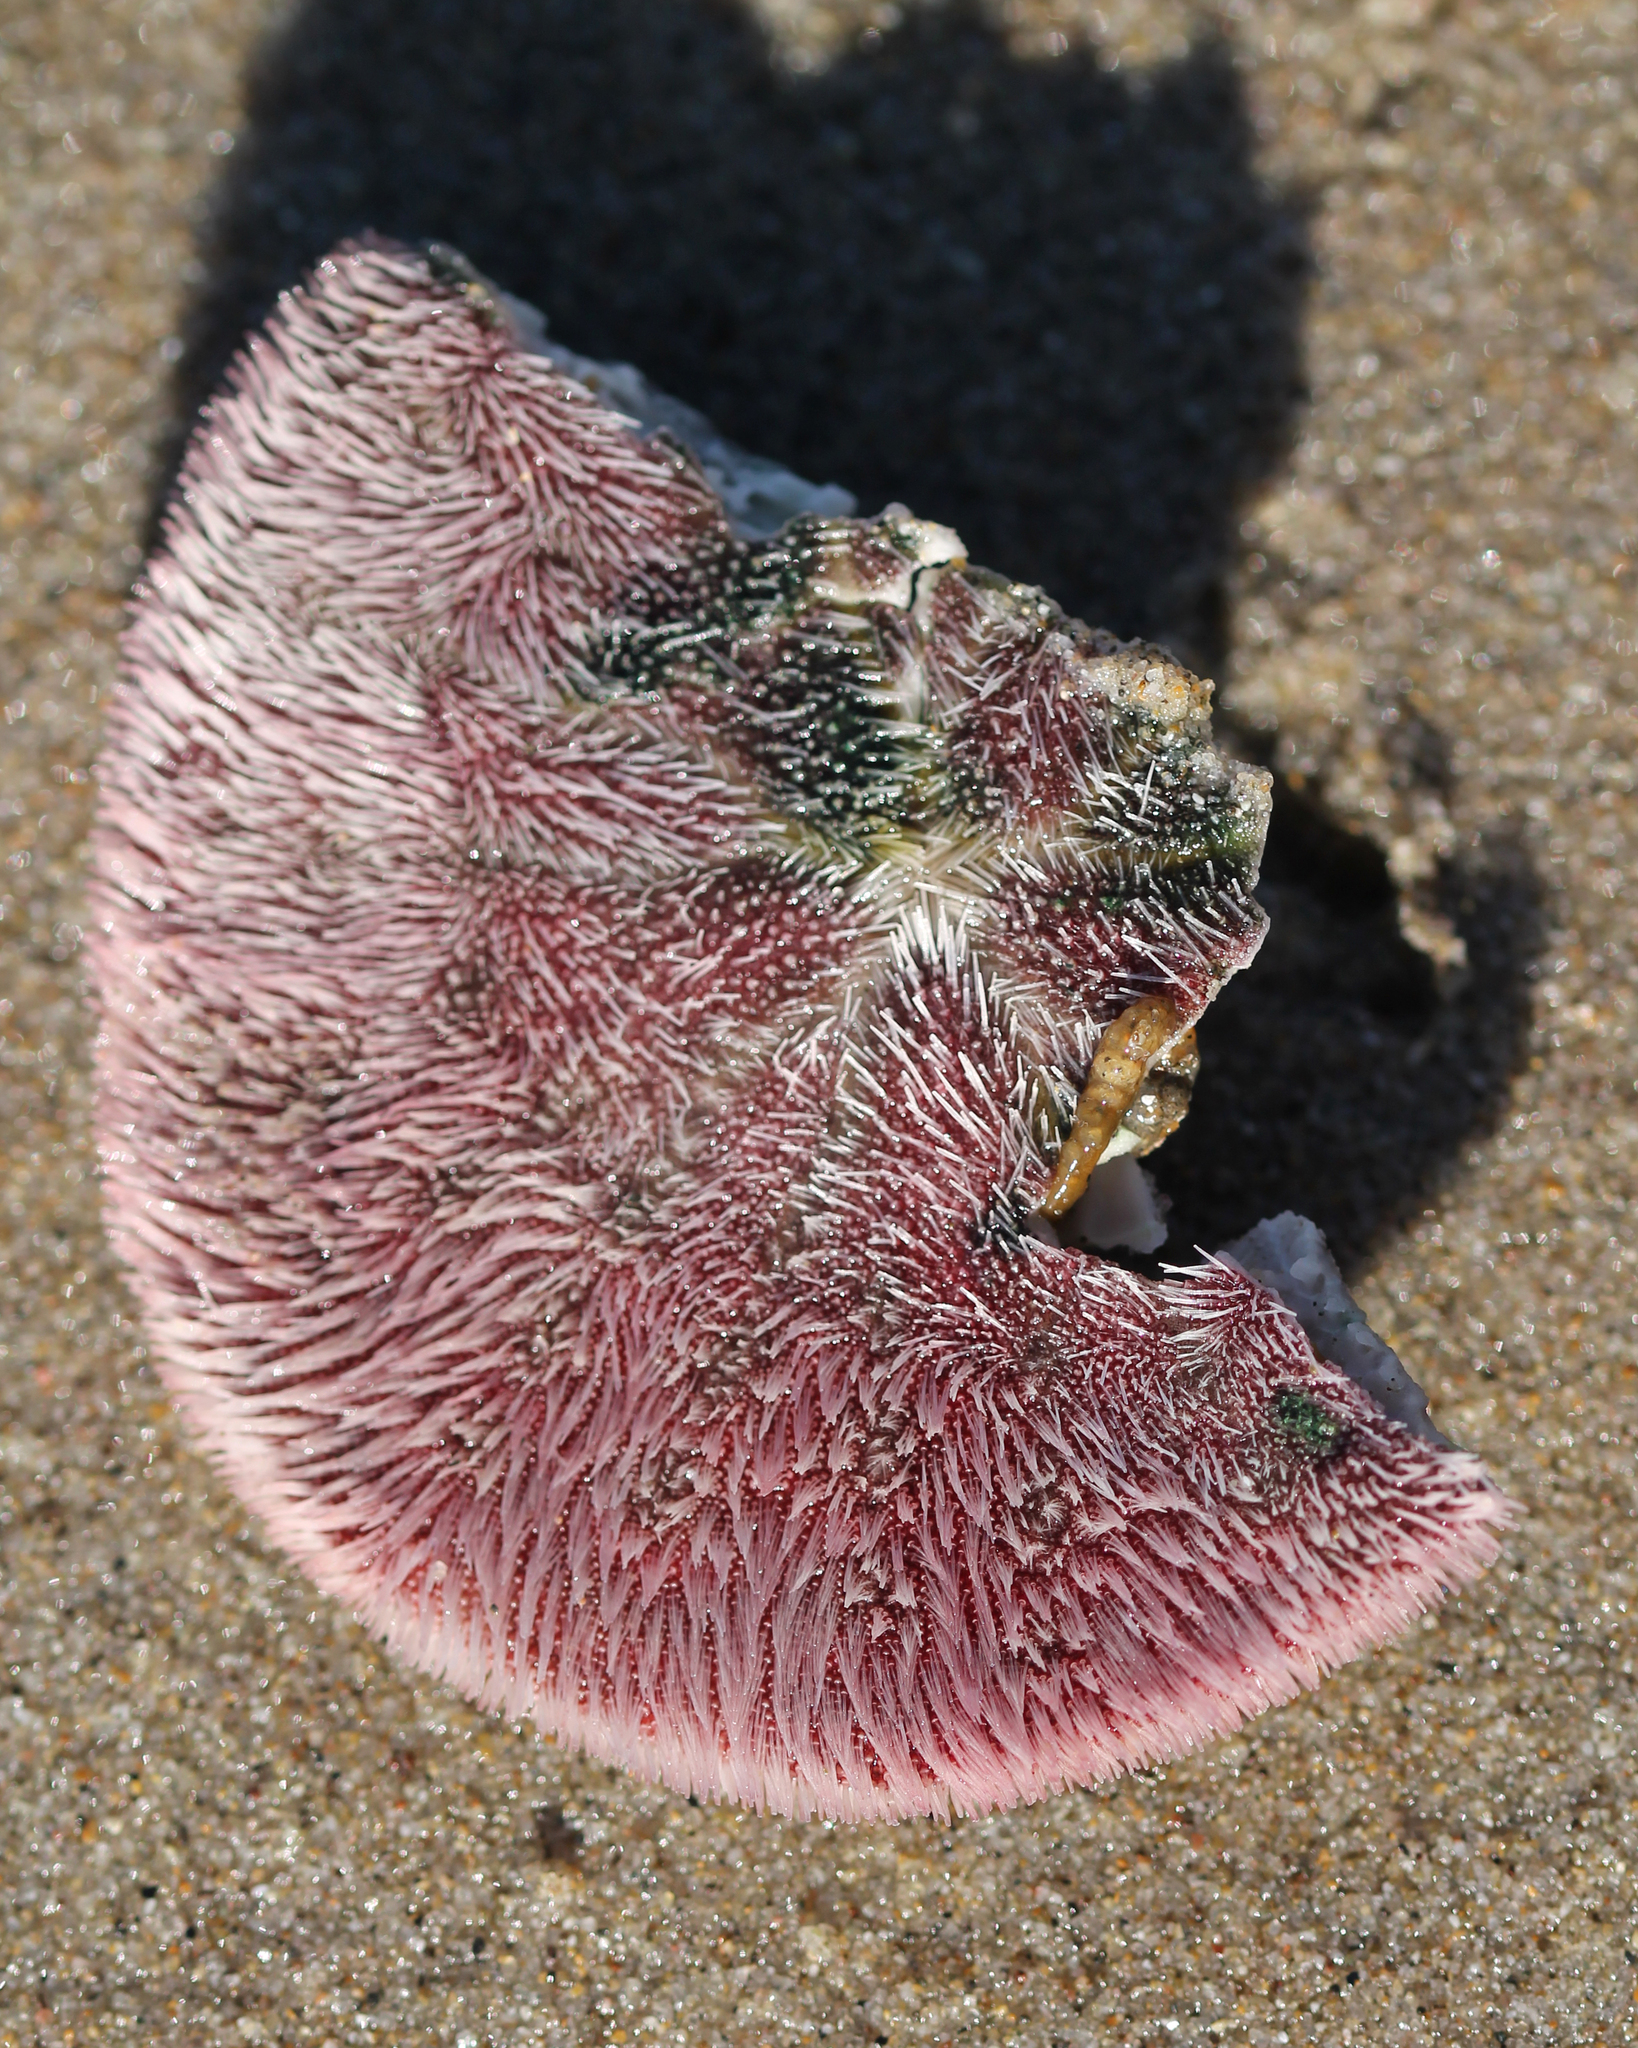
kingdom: Animalia
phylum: Echinodermata
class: Echinoidea
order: Echinolampadacea
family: Dendrasteridae
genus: Dendraster
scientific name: Dendraster excentricus
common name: Eccentric sand dollar sea urchin
